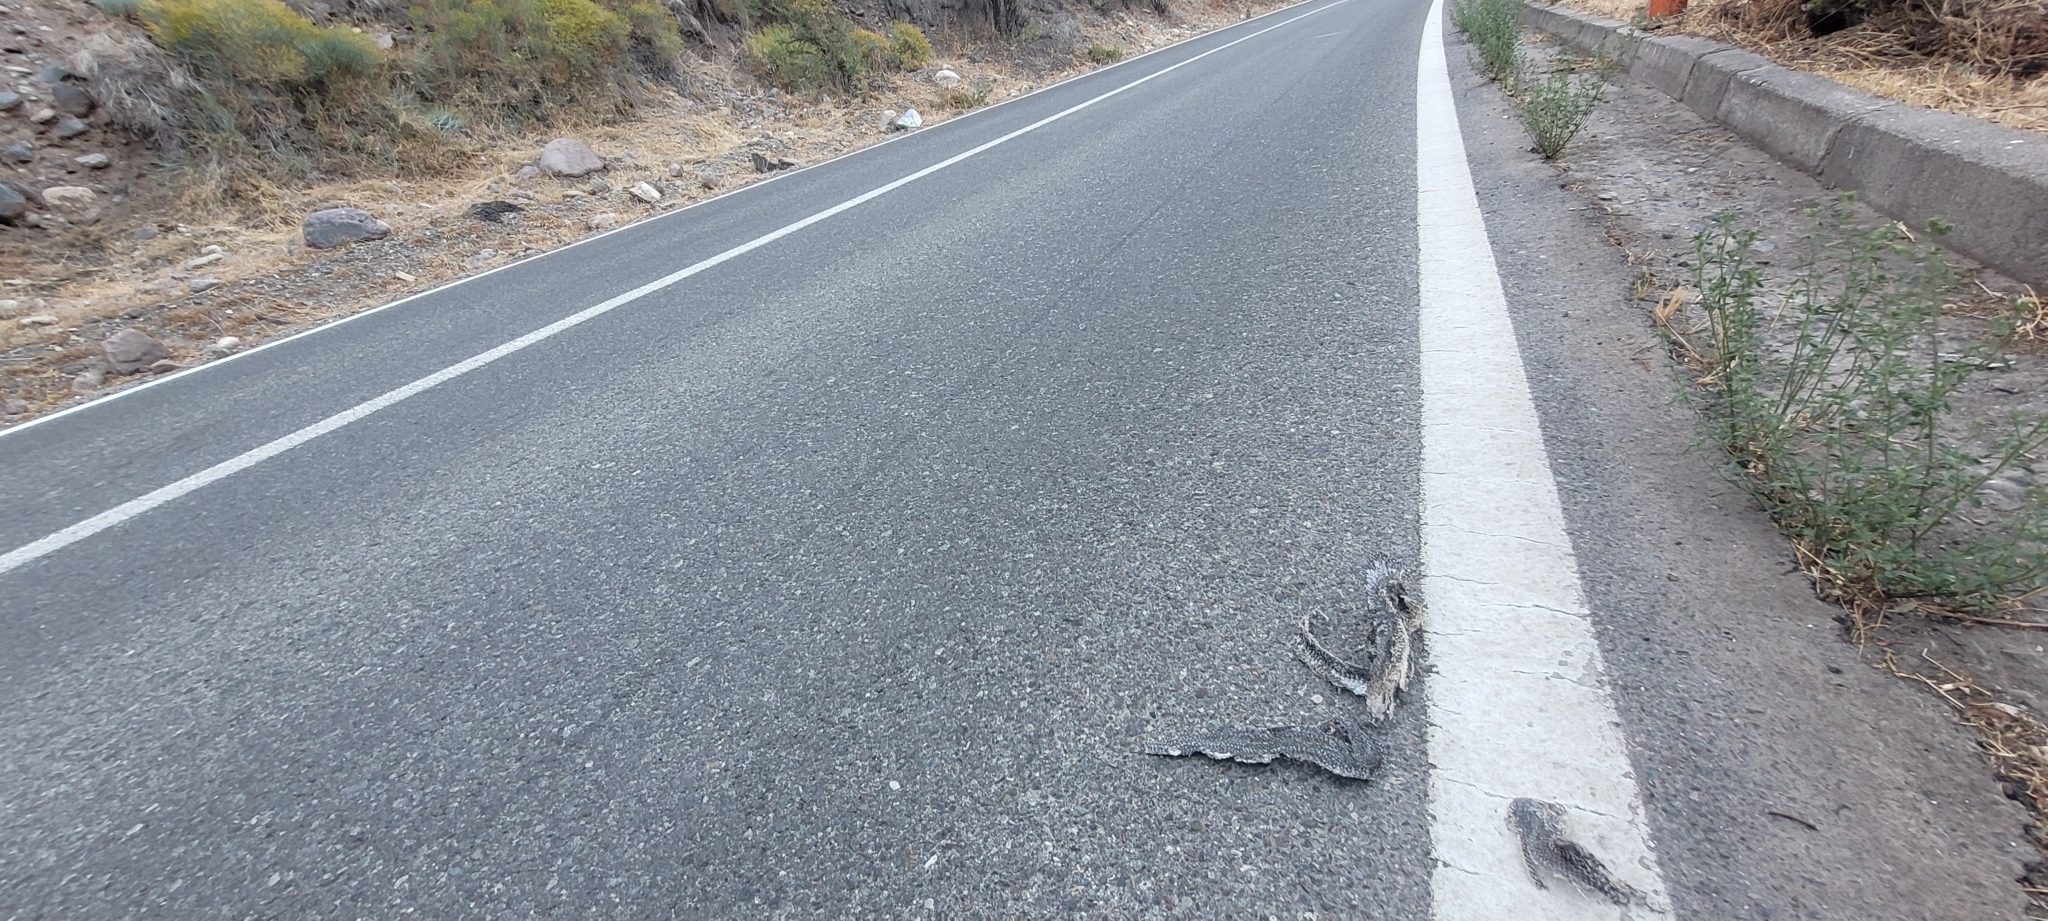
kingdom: Animalia
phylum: Chordata
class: Squamata
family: Colubridae
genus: Philodryas
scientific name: Philodryas chamissonis
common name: Chilean green racer
